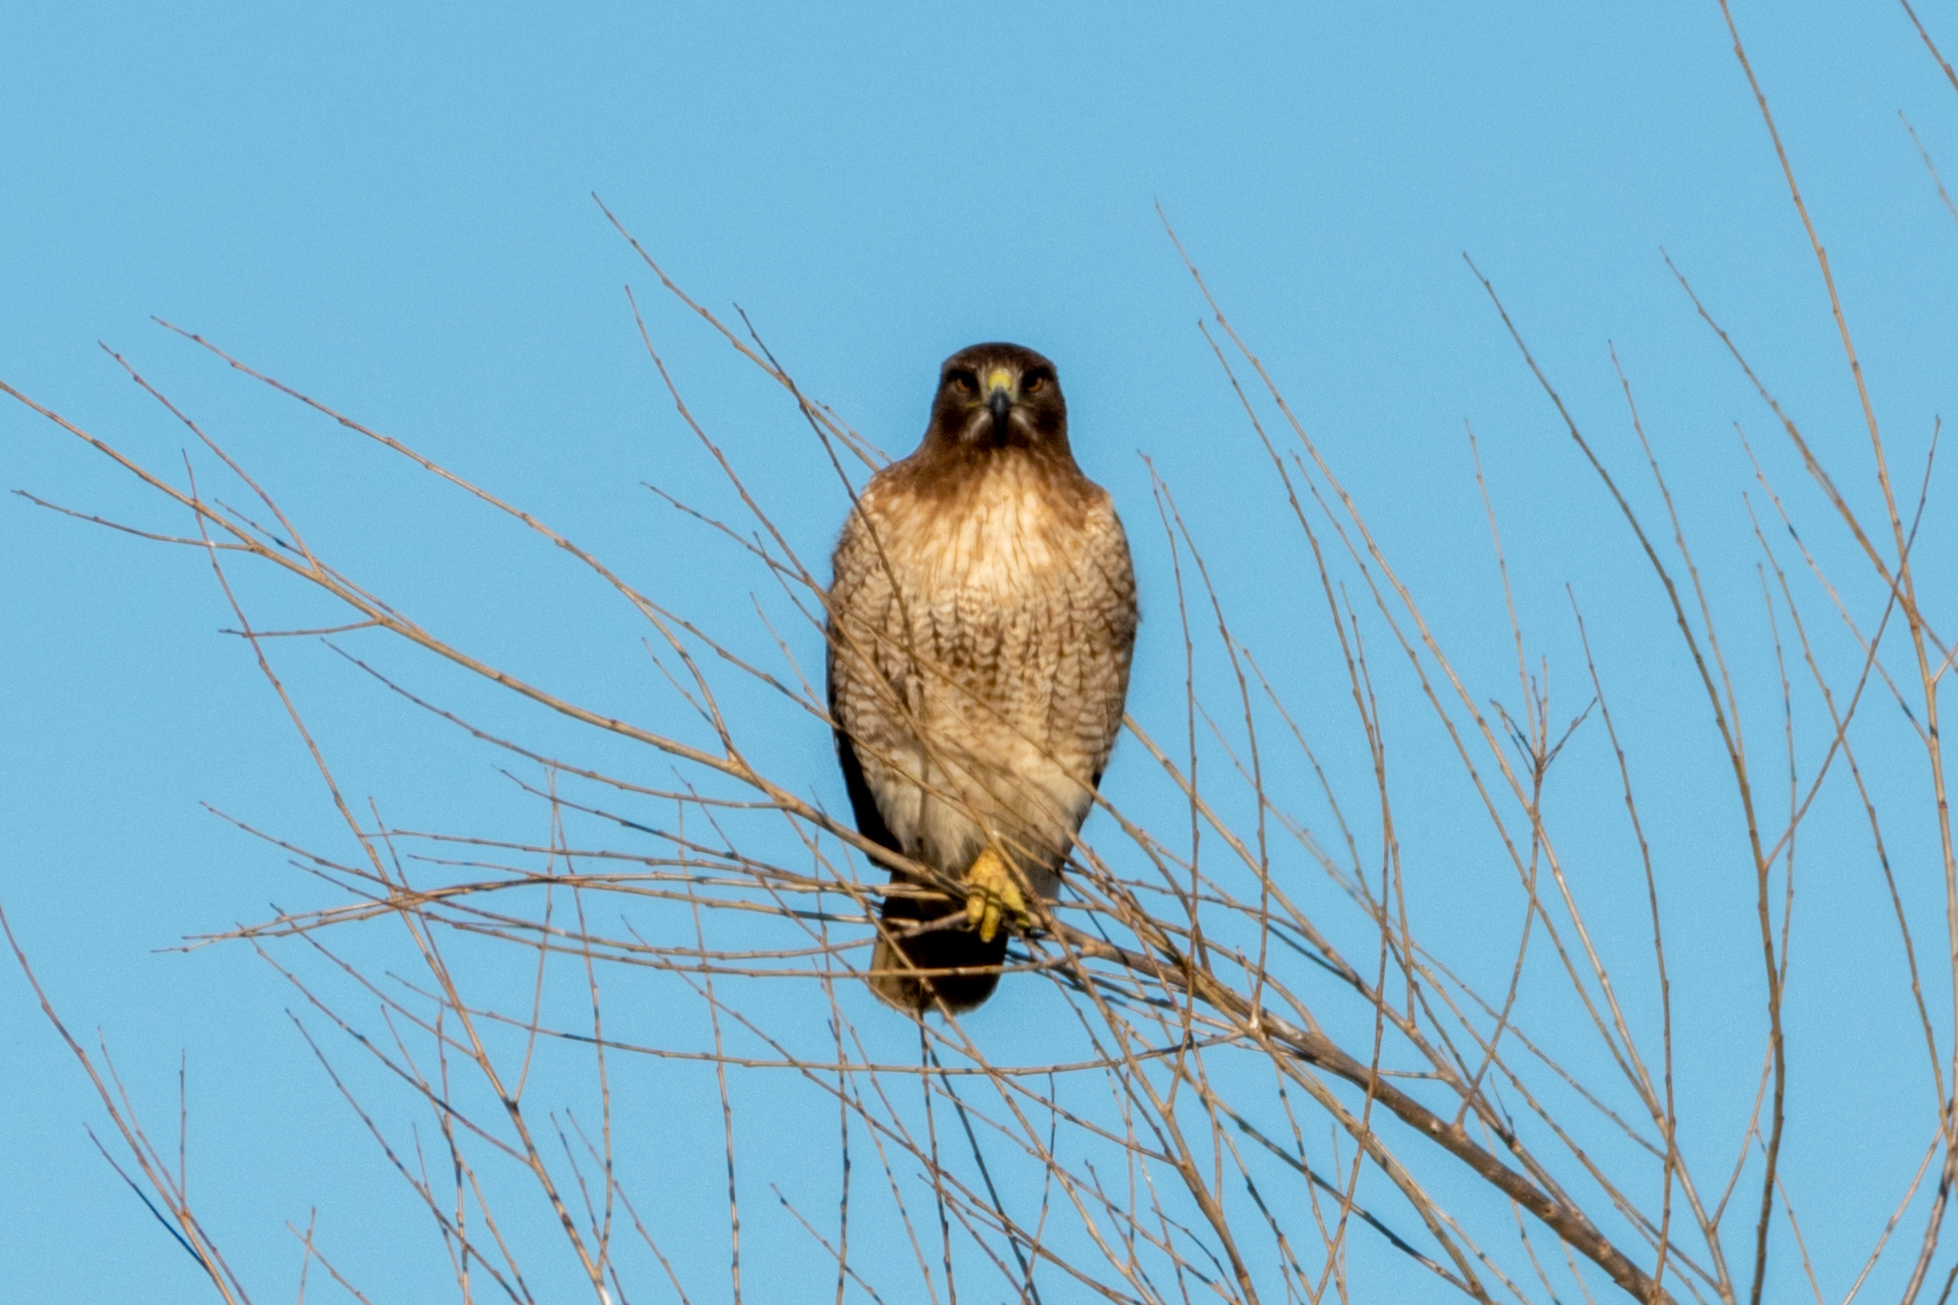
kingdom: Animalia
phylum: Chordata
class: Aves
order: Accipitriformes
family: Accipitridae
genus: Buteo
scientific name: Buteo jamaicensis
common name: Red-tailed hawk
